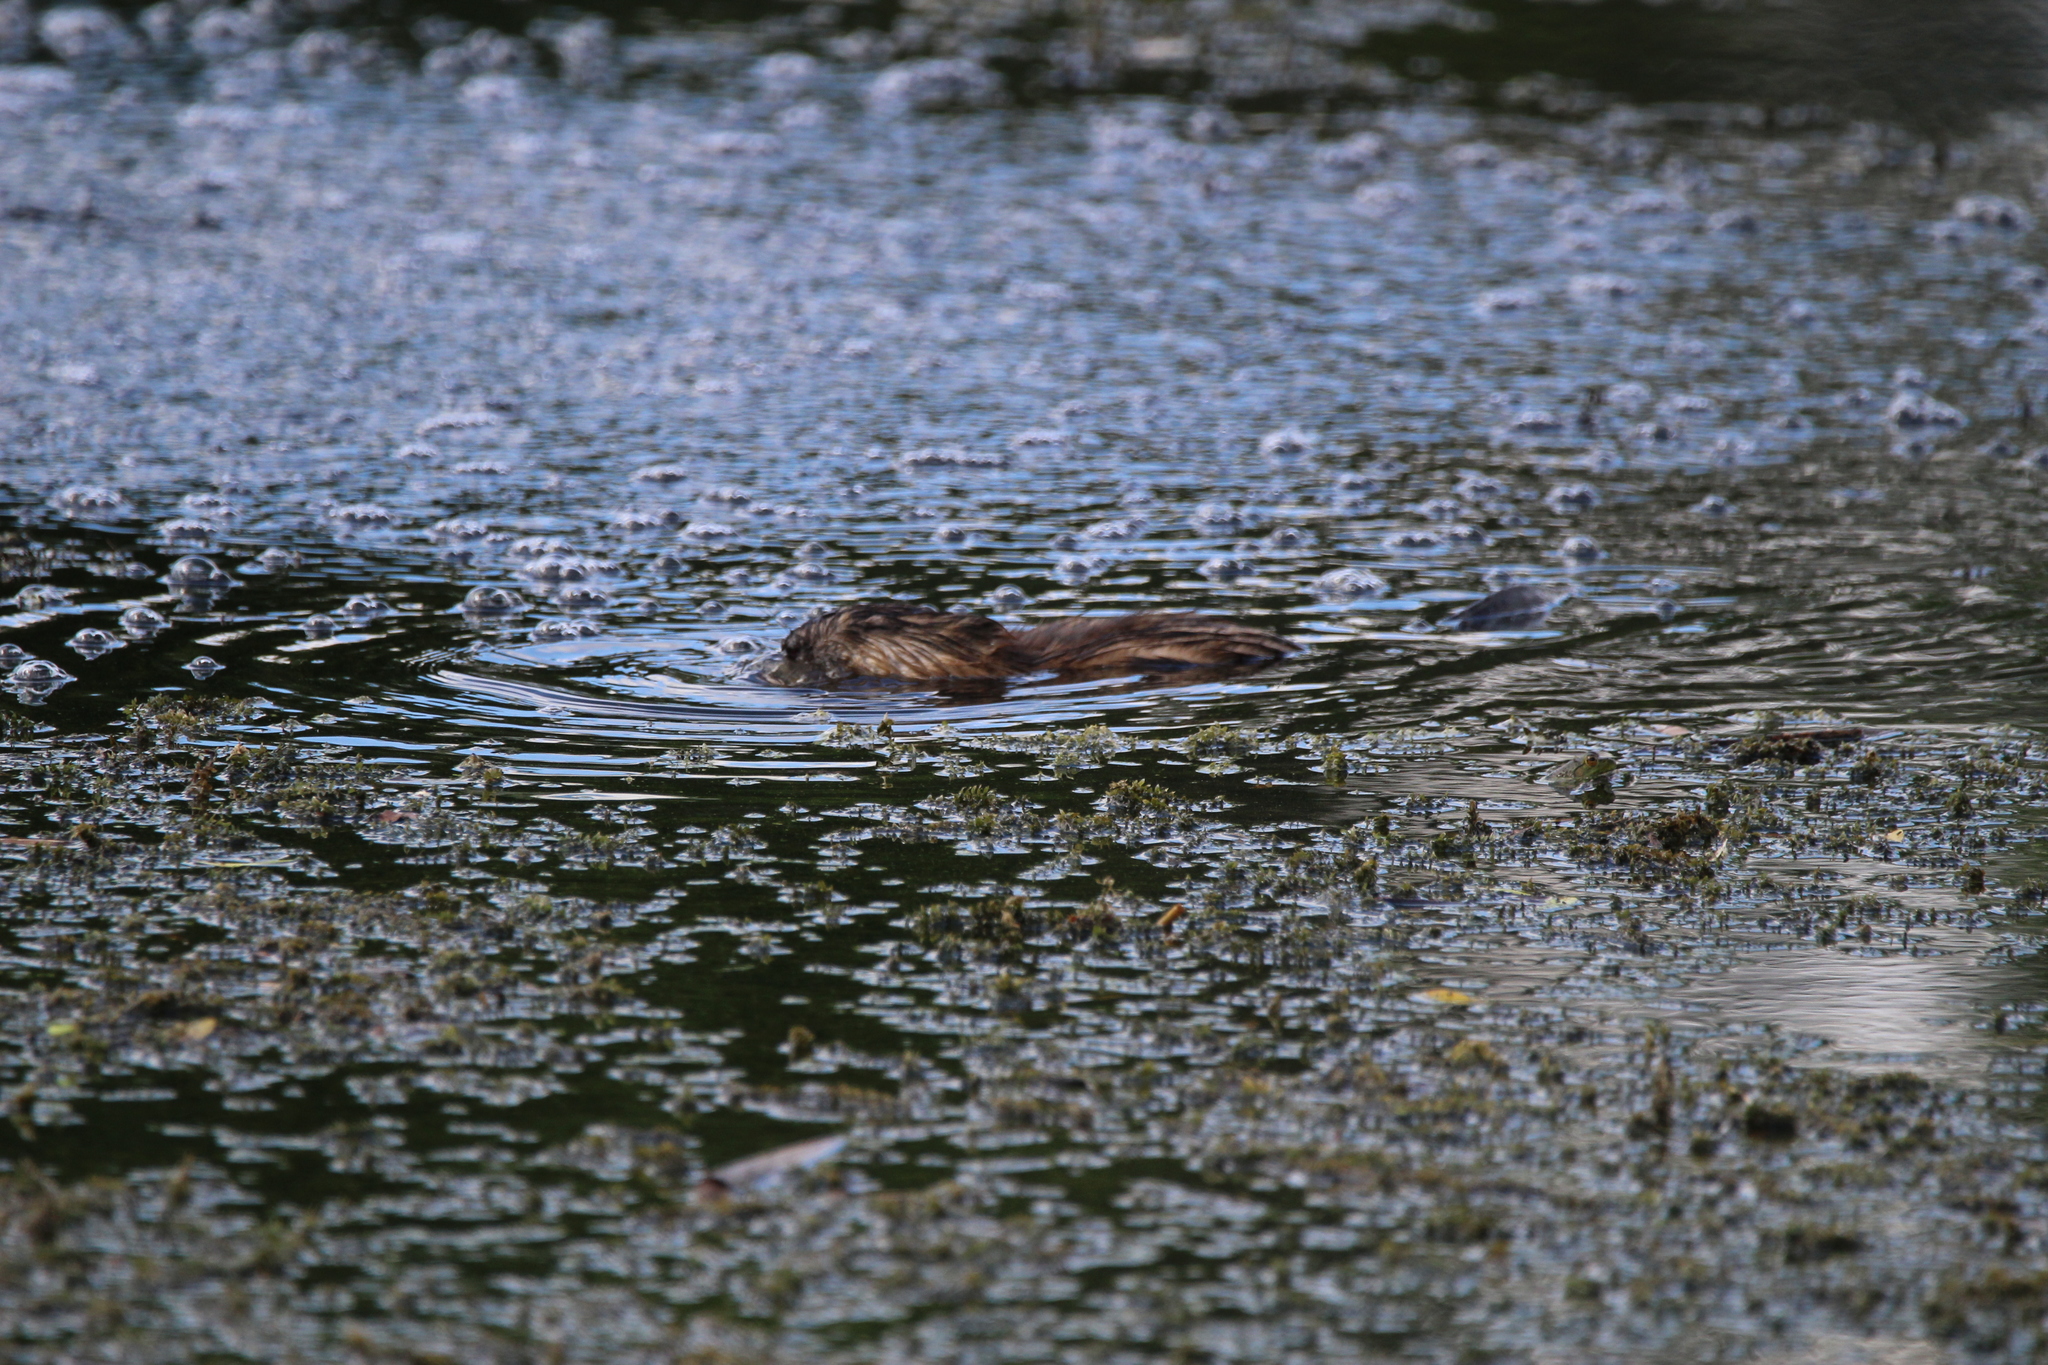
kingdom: Animalia
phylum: Chordata
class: Mammalia
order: Rodentia
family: Cricetidae
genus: Ondatra
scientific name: Ondatra zibethicus
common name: Muskrat
